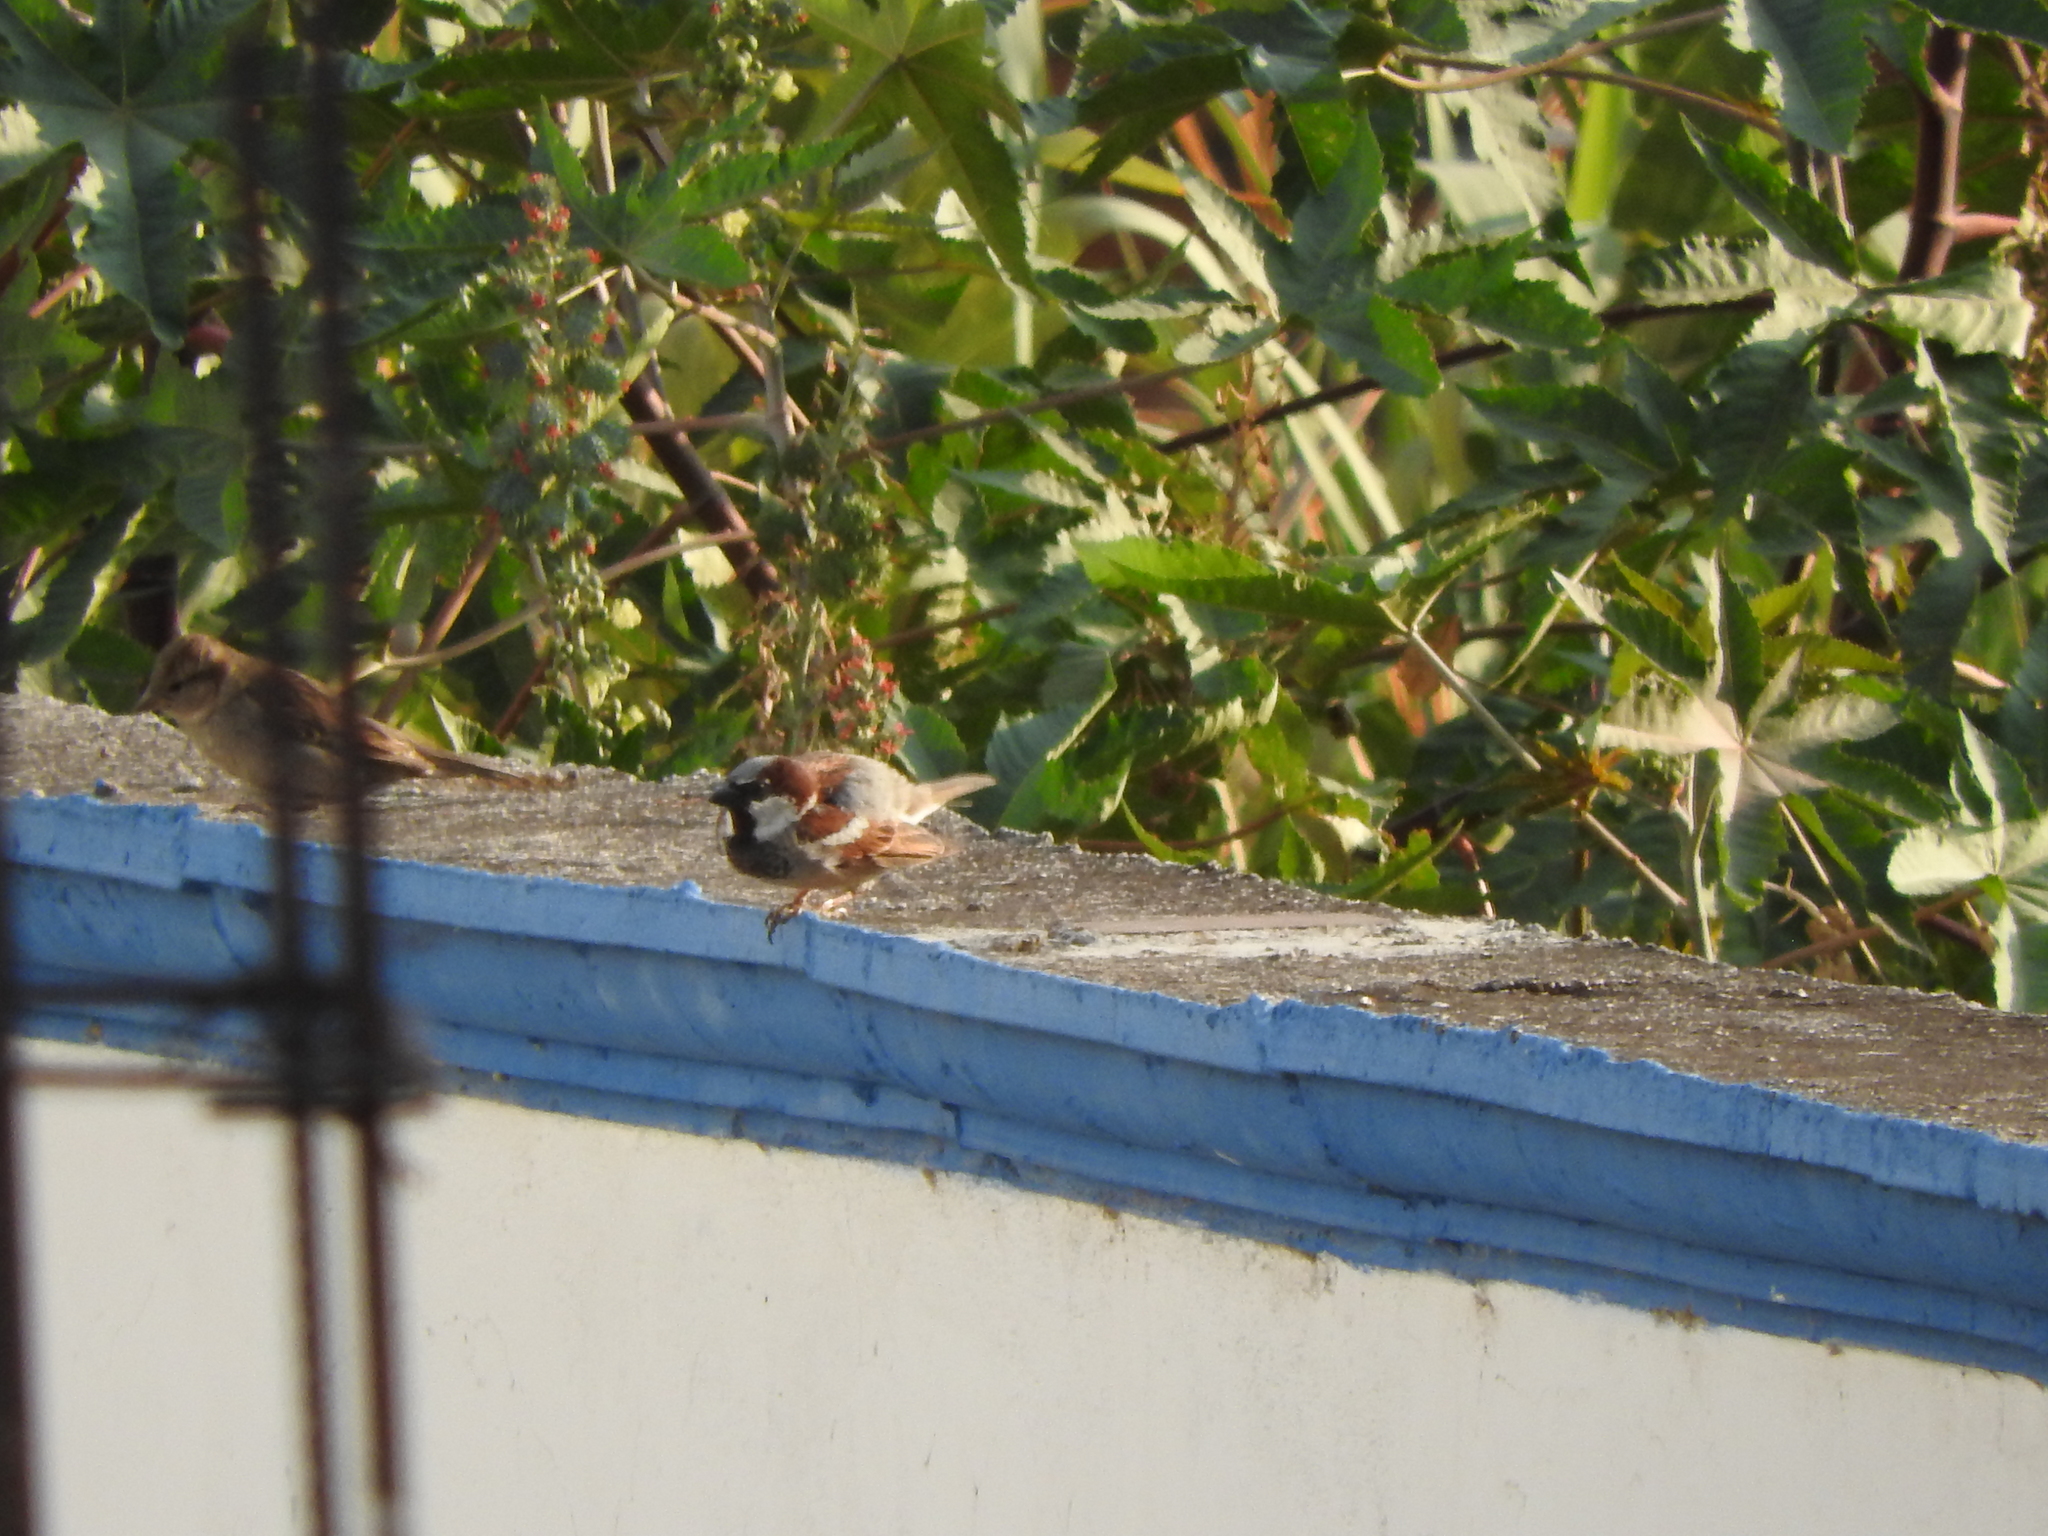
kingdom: Animalia
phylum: Chordata
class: Aves
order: Passeriformes
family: Passeridae
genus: Passer
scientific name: Passer domesticus
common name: House sparrow
